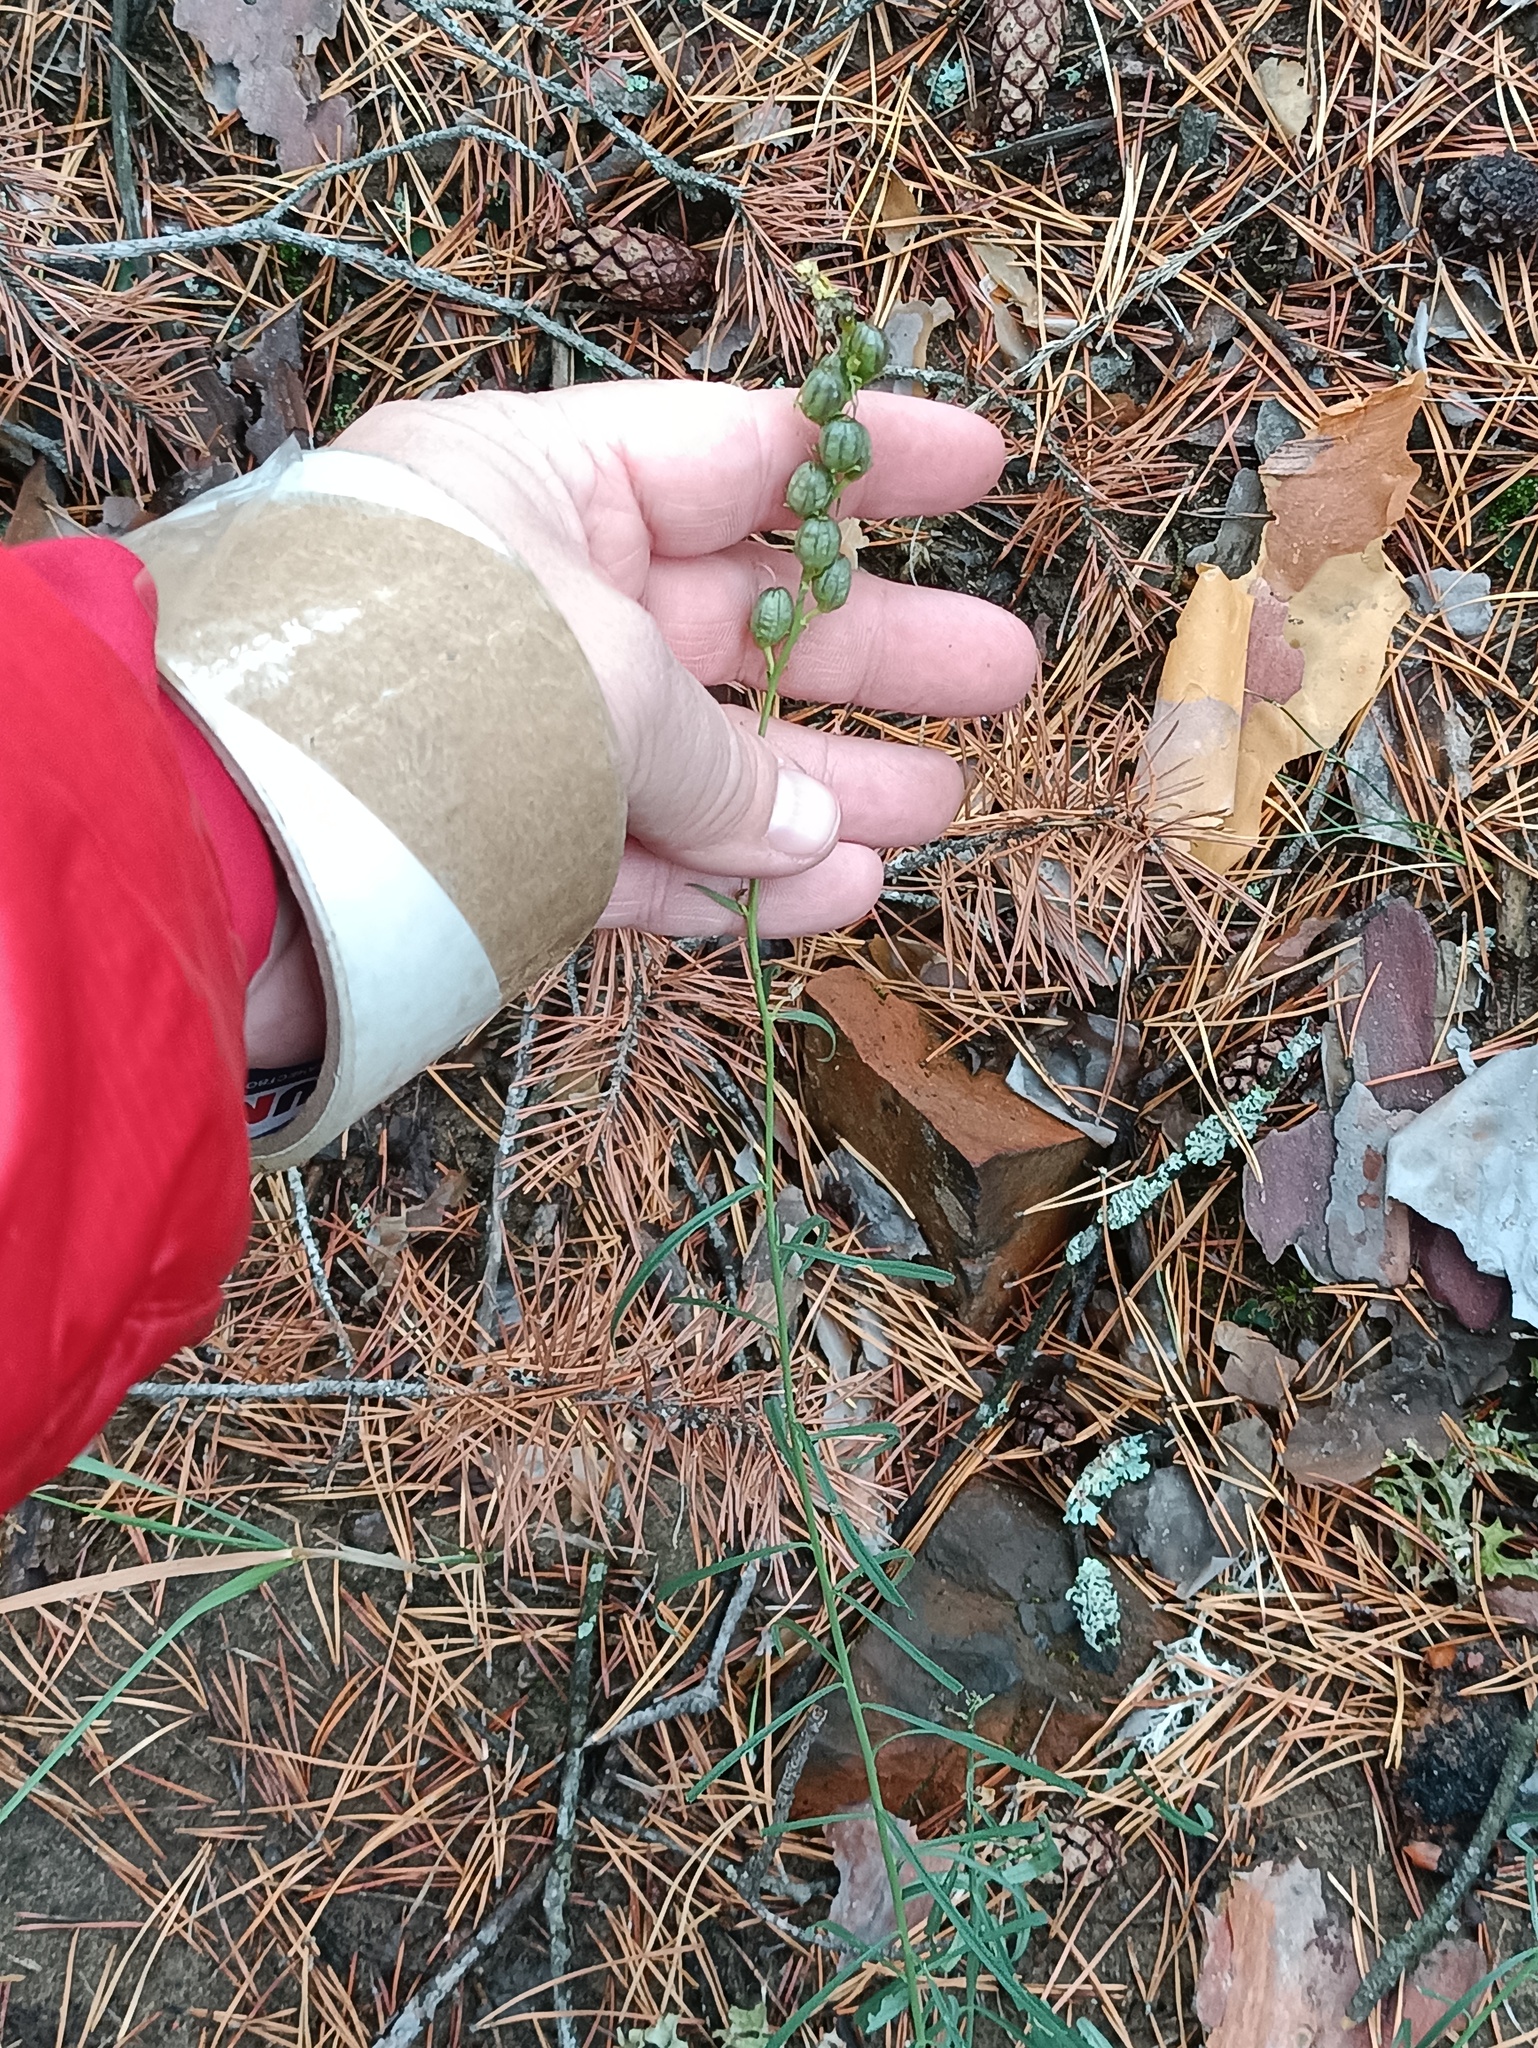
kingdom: Plantae
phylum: Tracheophyta
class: Magnoliopsida
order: Lamiales
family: Plantaginaceae
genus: Linaria
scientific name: Linaria vulgaris
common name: Butter and eggs
